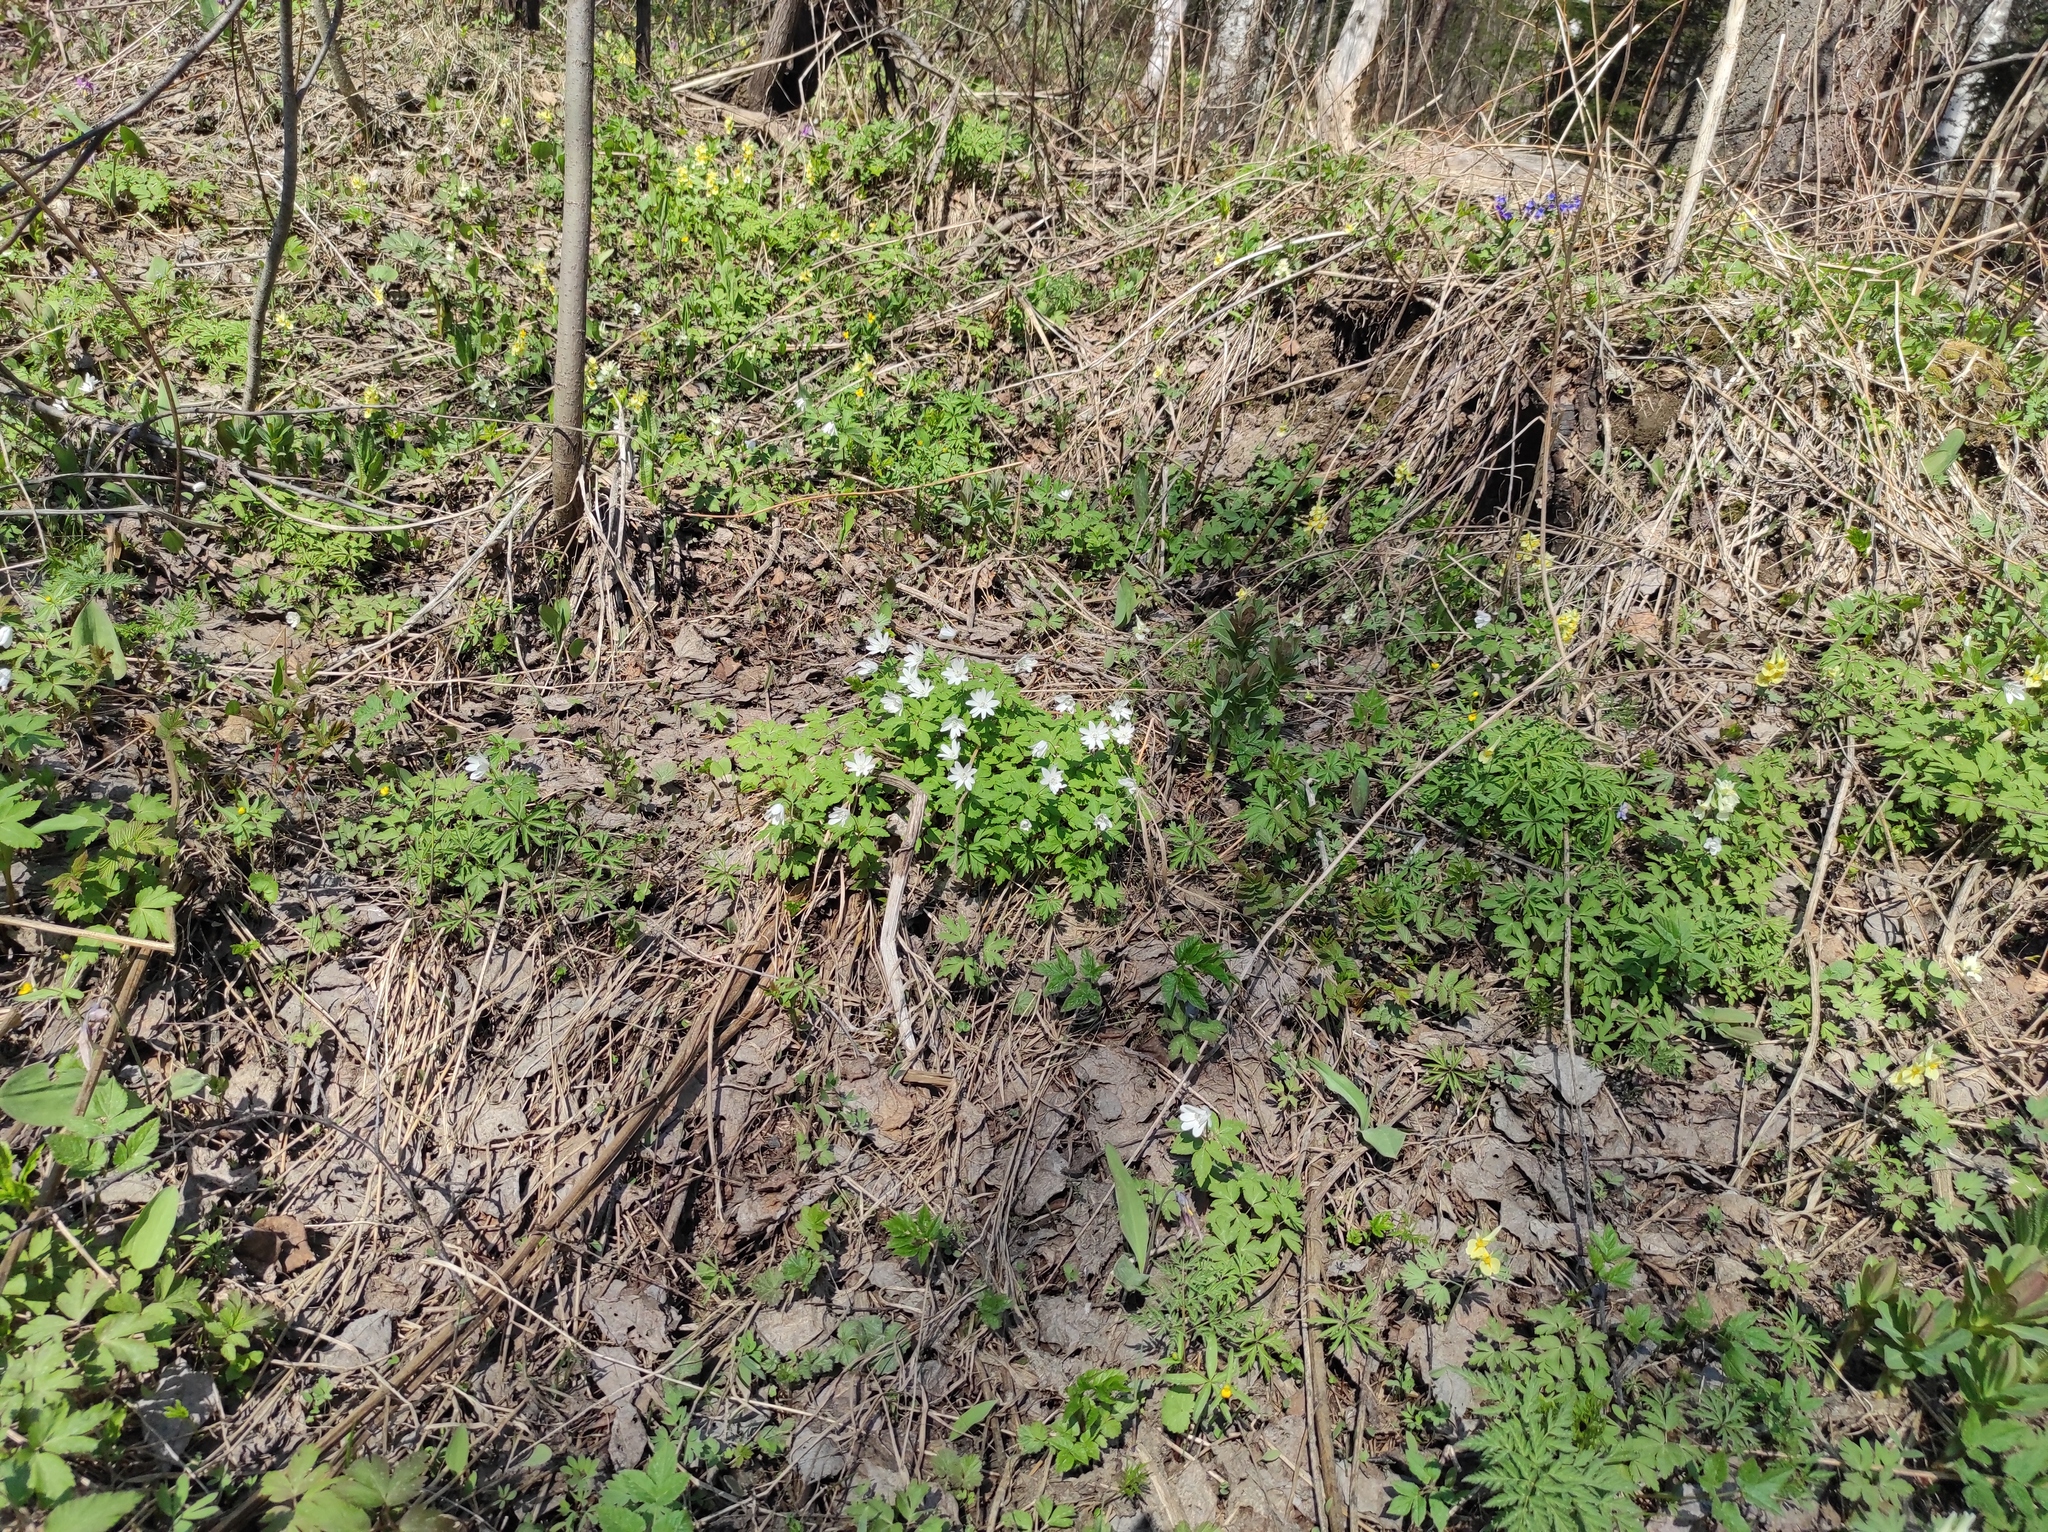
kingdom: Plantae
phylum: Tracheophyta
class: Magnoliopsida
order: Ranunculales
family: Ranunculaceae
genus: Anemone
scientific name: Anemone altaica
